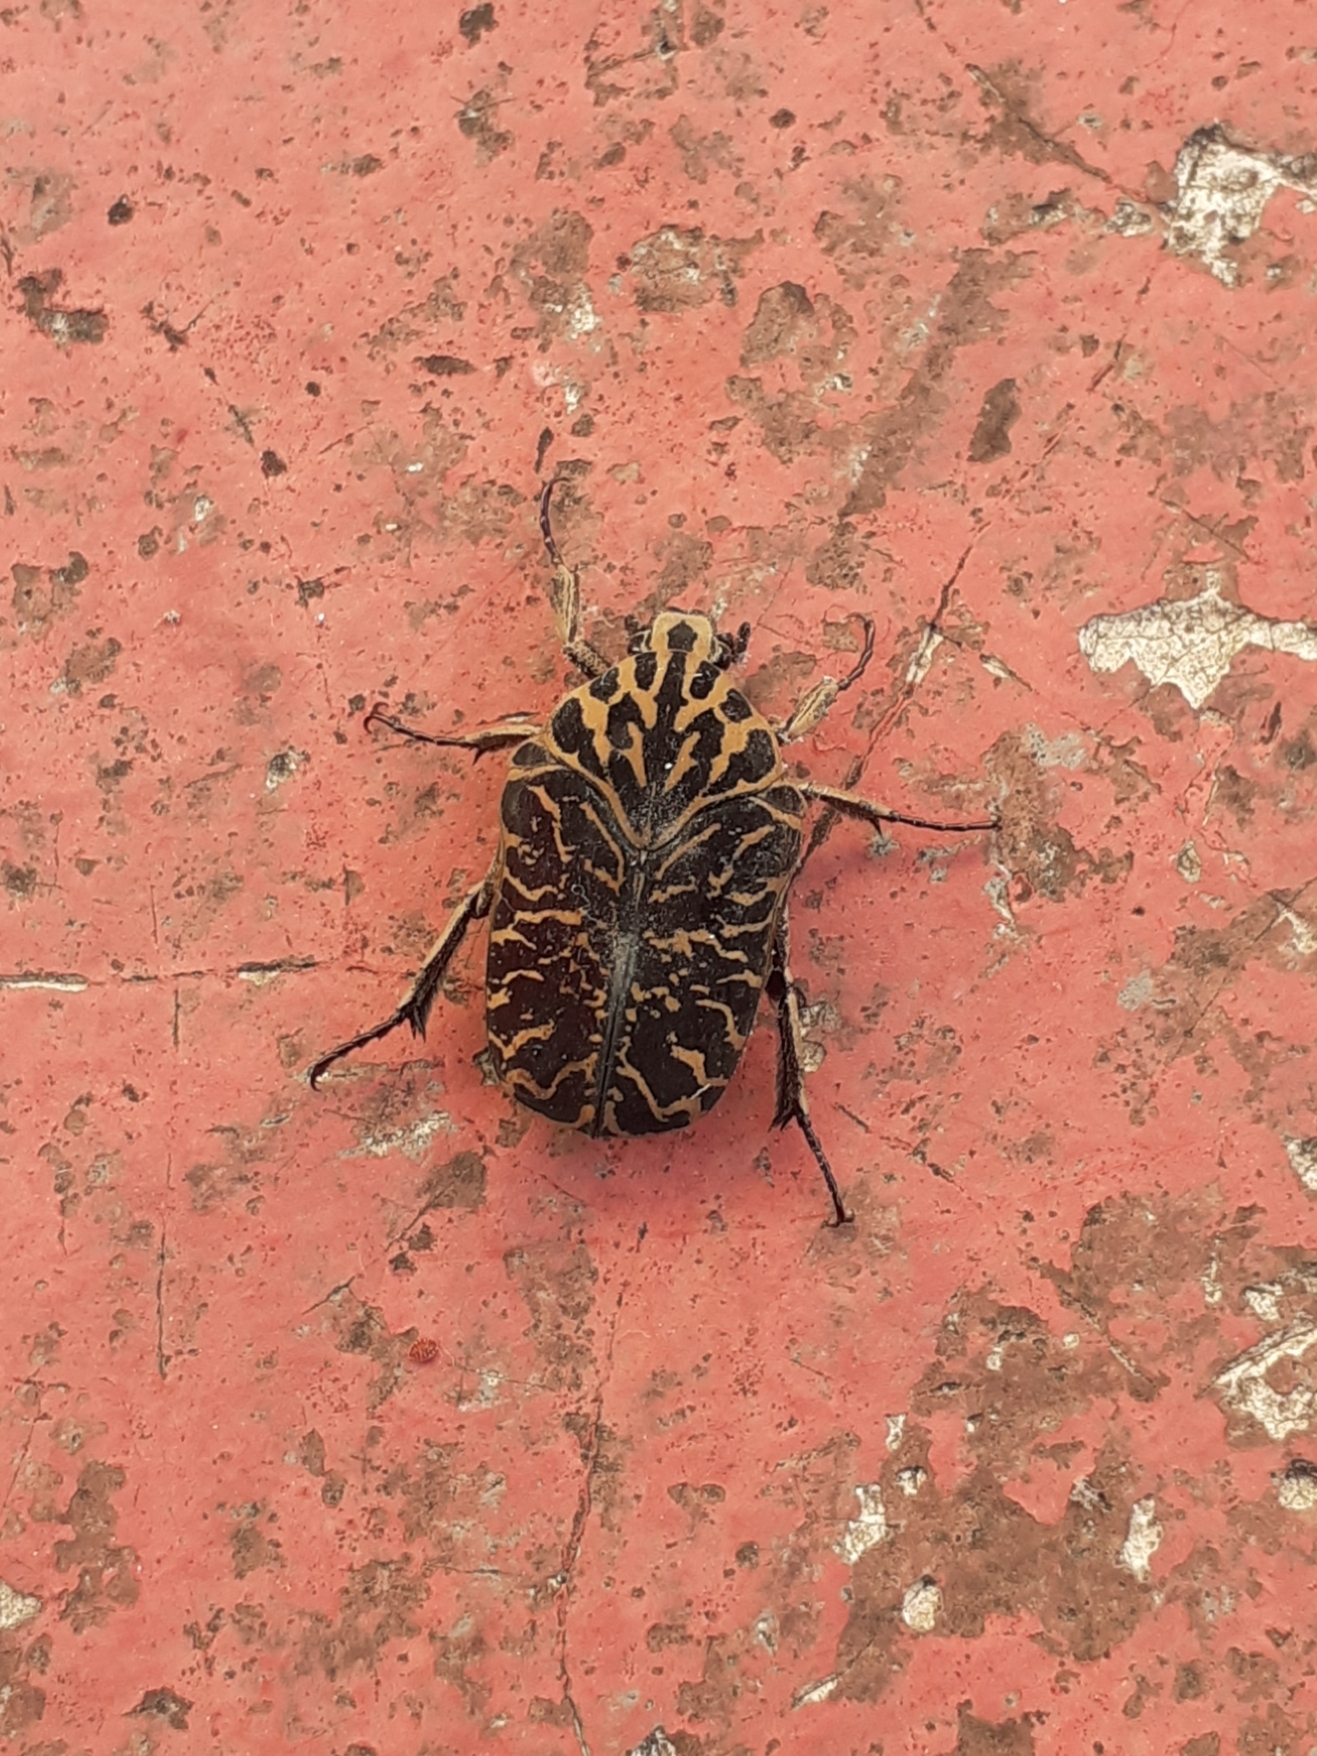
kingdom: Animalia
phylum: Arthropoda
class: Insecta
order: Coleoptera
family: Scarabaeidae
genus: Gymnetis
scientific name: Gymnetis strigosa
